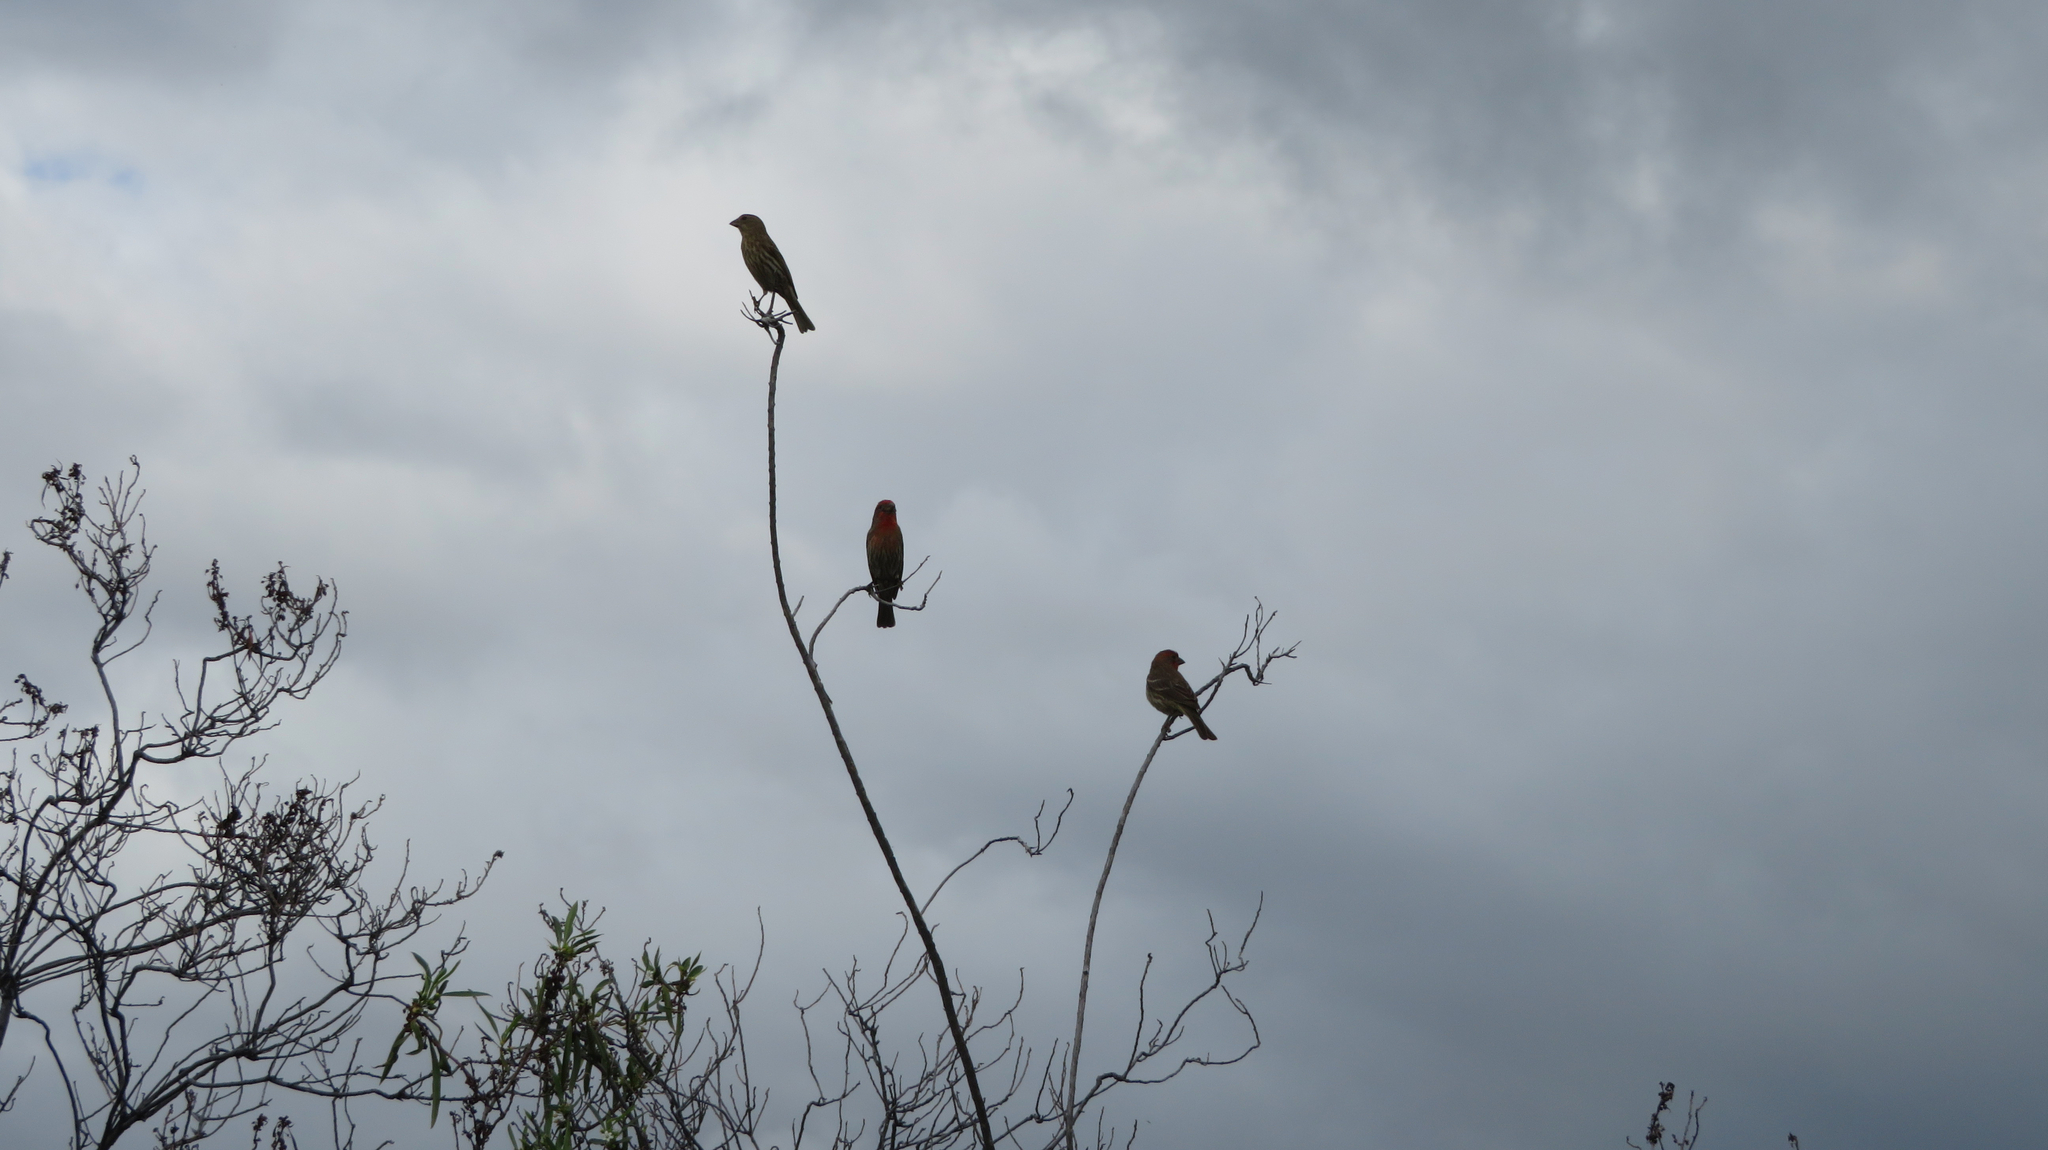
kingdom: Animalia
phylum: Chordata
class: Aves
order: Passeriformes
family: Fringillidae
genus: Haemorhous
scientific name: Haemorhous mexicanus
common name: House finch
